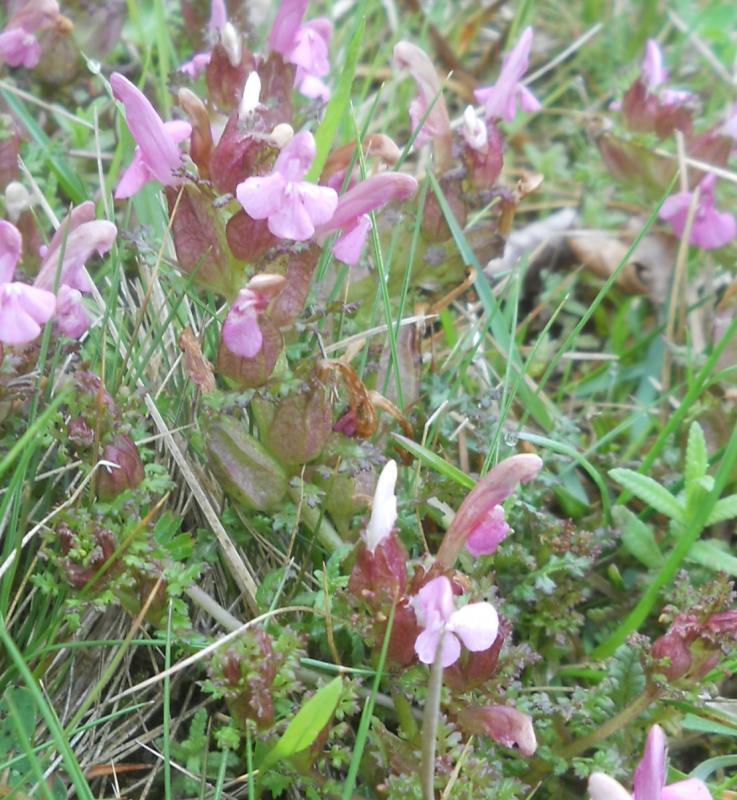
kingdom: Plantae
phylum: Tracheophyta
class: Magnoliopsida
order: Lamiales
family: Orobanchaceae
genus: Pedicularis
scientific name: Pedicularis sylvatica
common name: Lousewort
